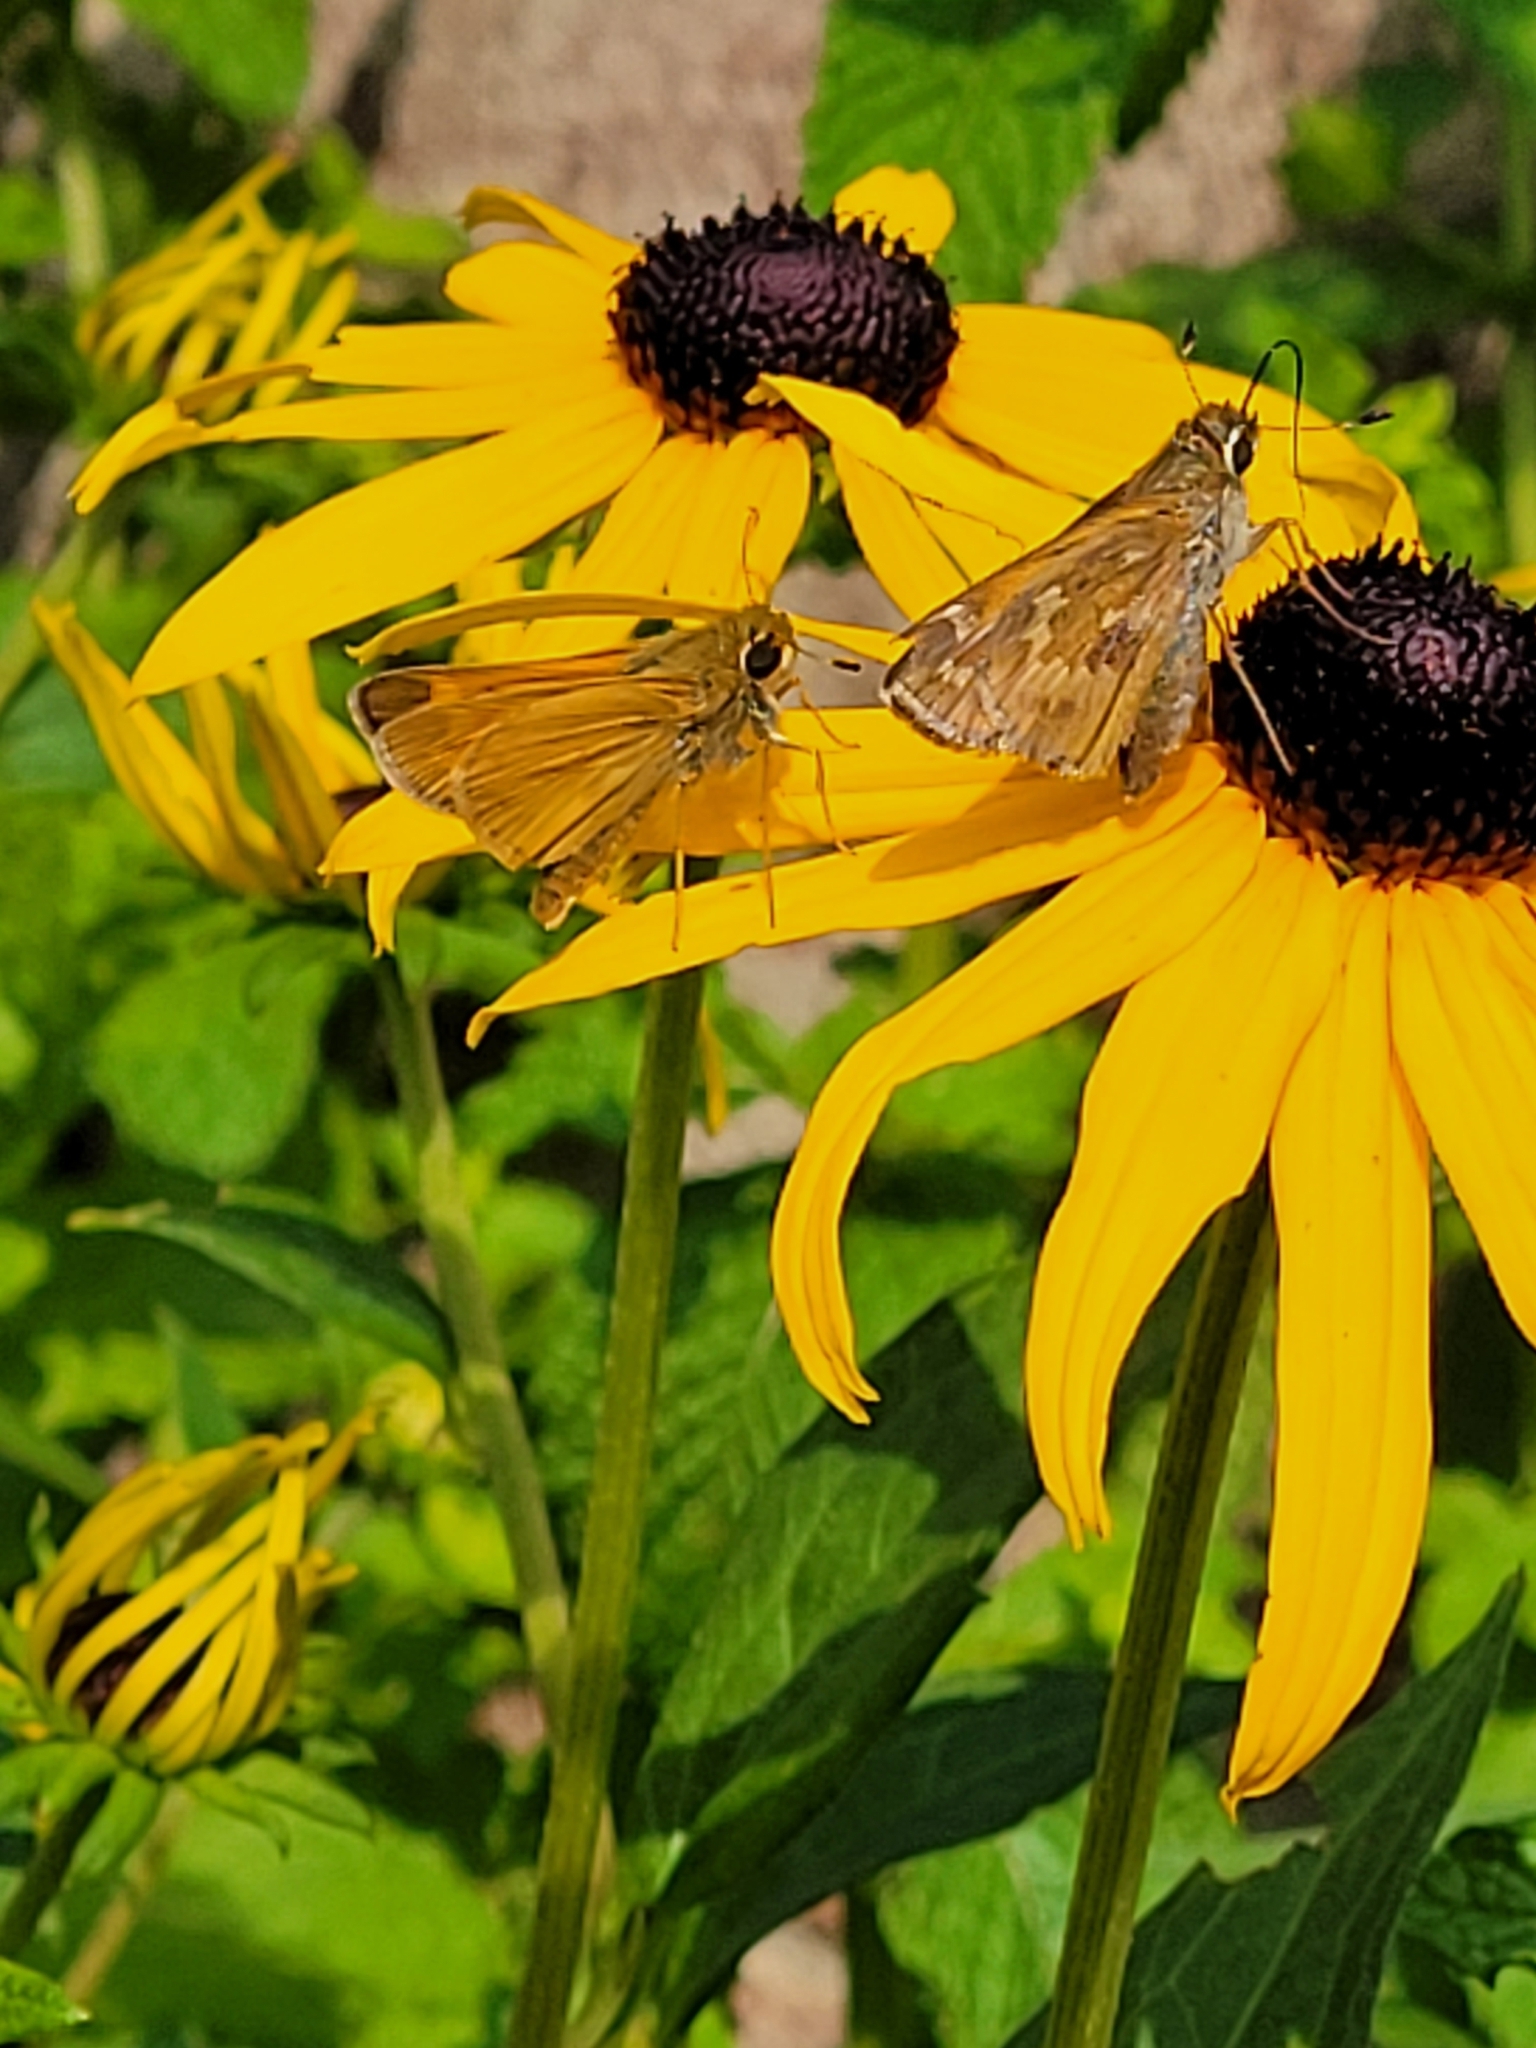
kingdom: Animalia
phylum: Arthropoda
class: Insecta
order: Lepidoptera
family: Hesperiidae
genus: Atalopedes
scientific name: Atalopedes
